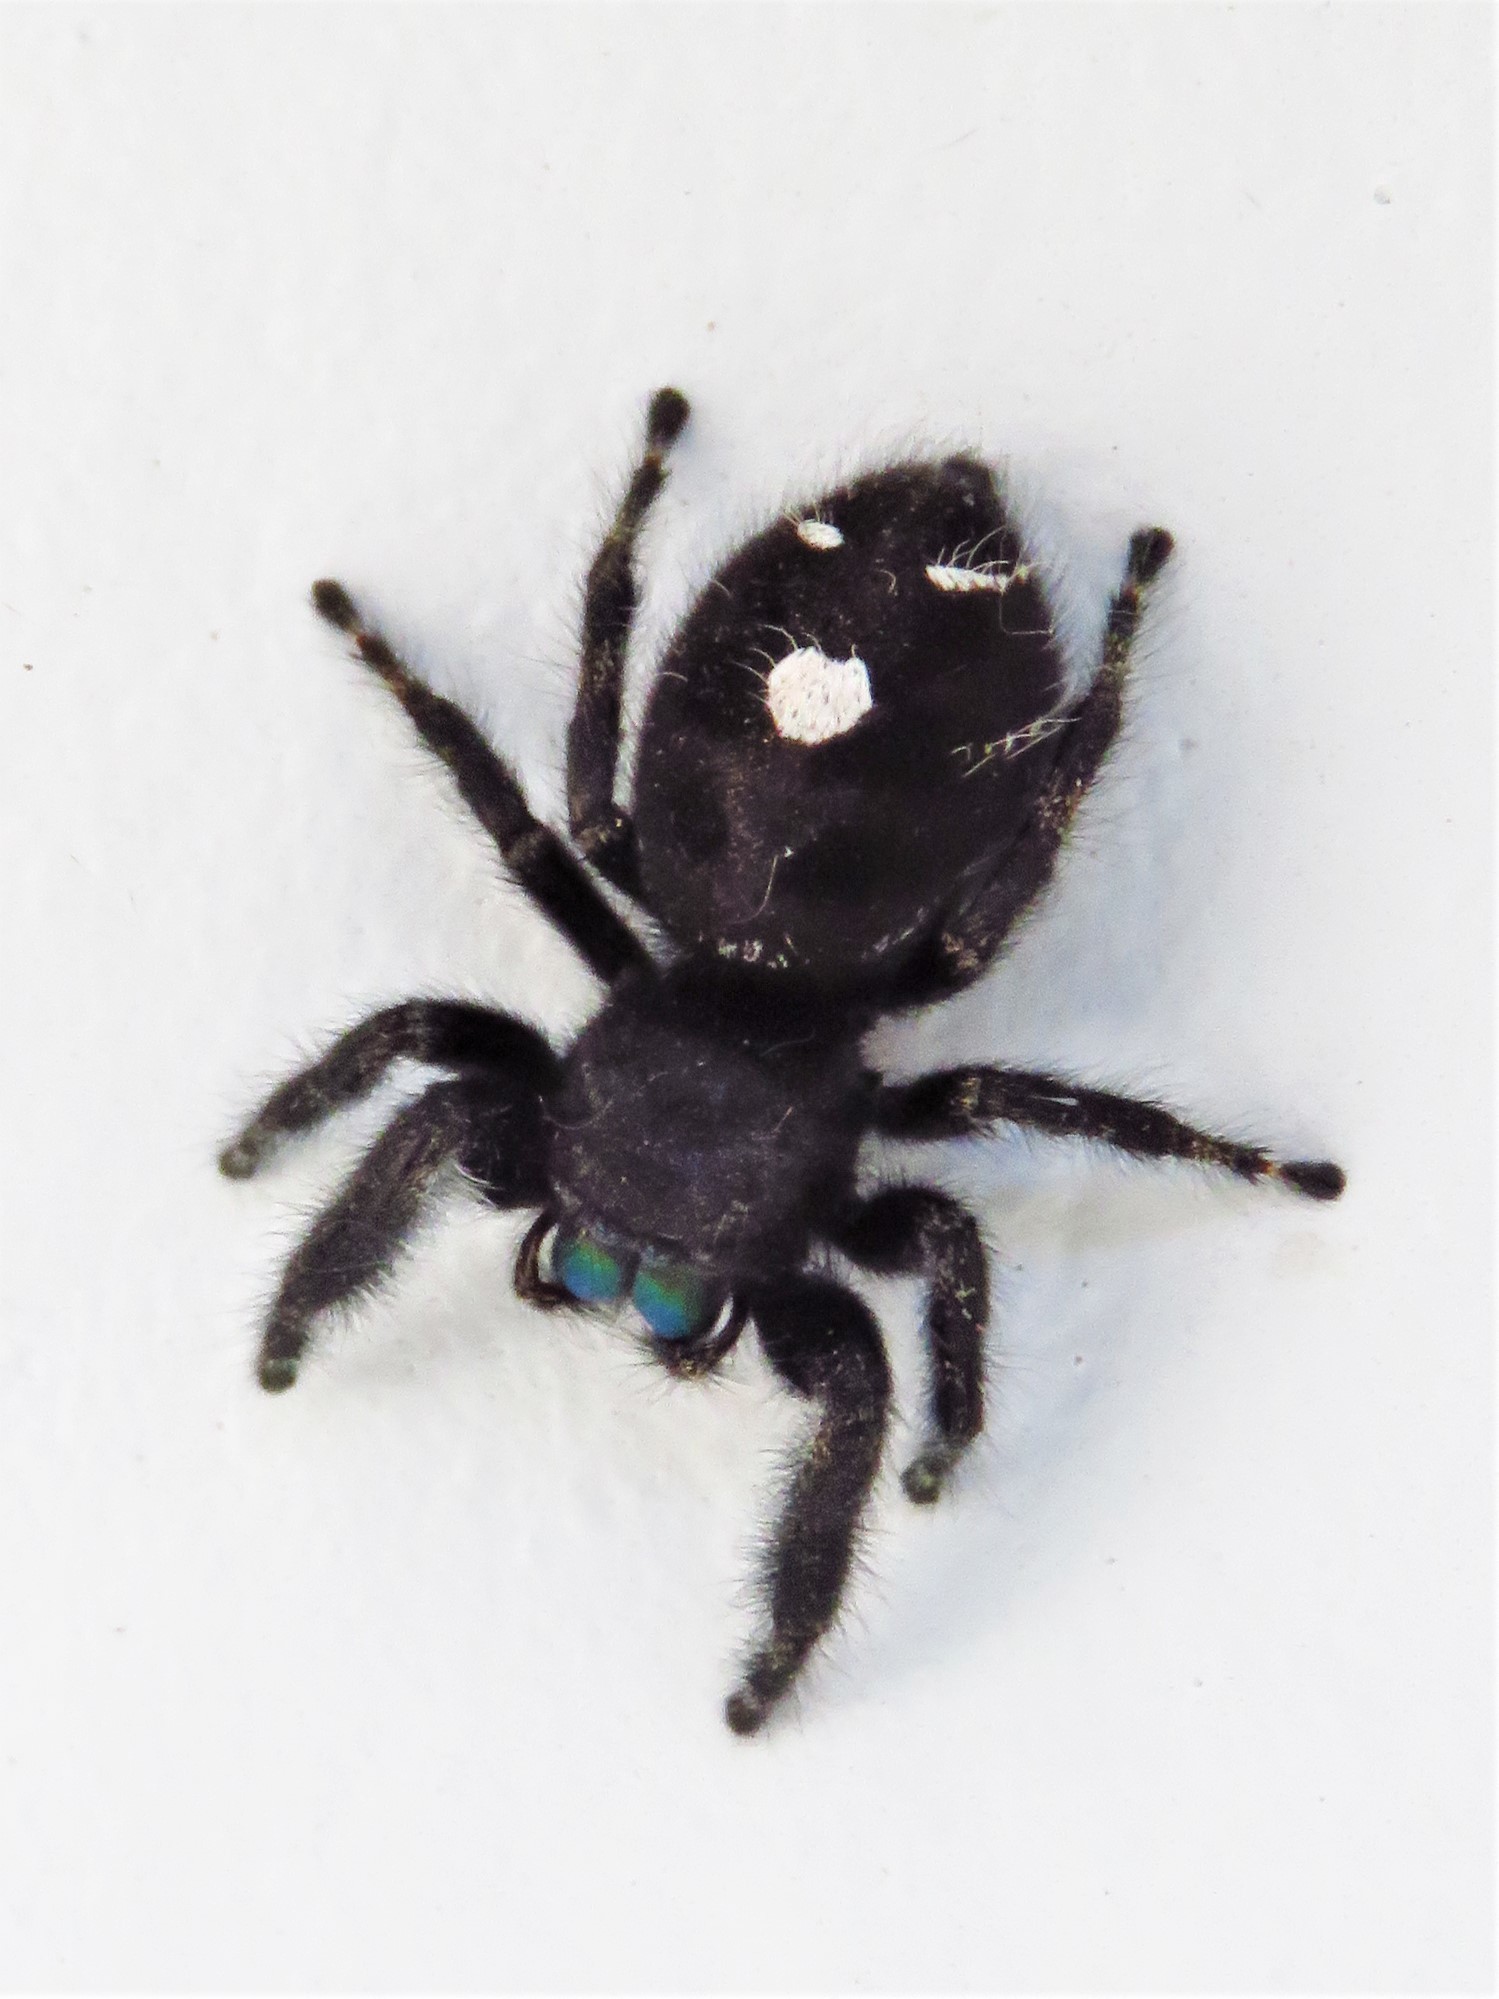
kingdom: Animalia
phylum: Arthropoda
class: Arachnida
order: Araneae
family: Salticidae
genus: Phidippus
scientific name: Phidippus audax
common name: Bold jumper
